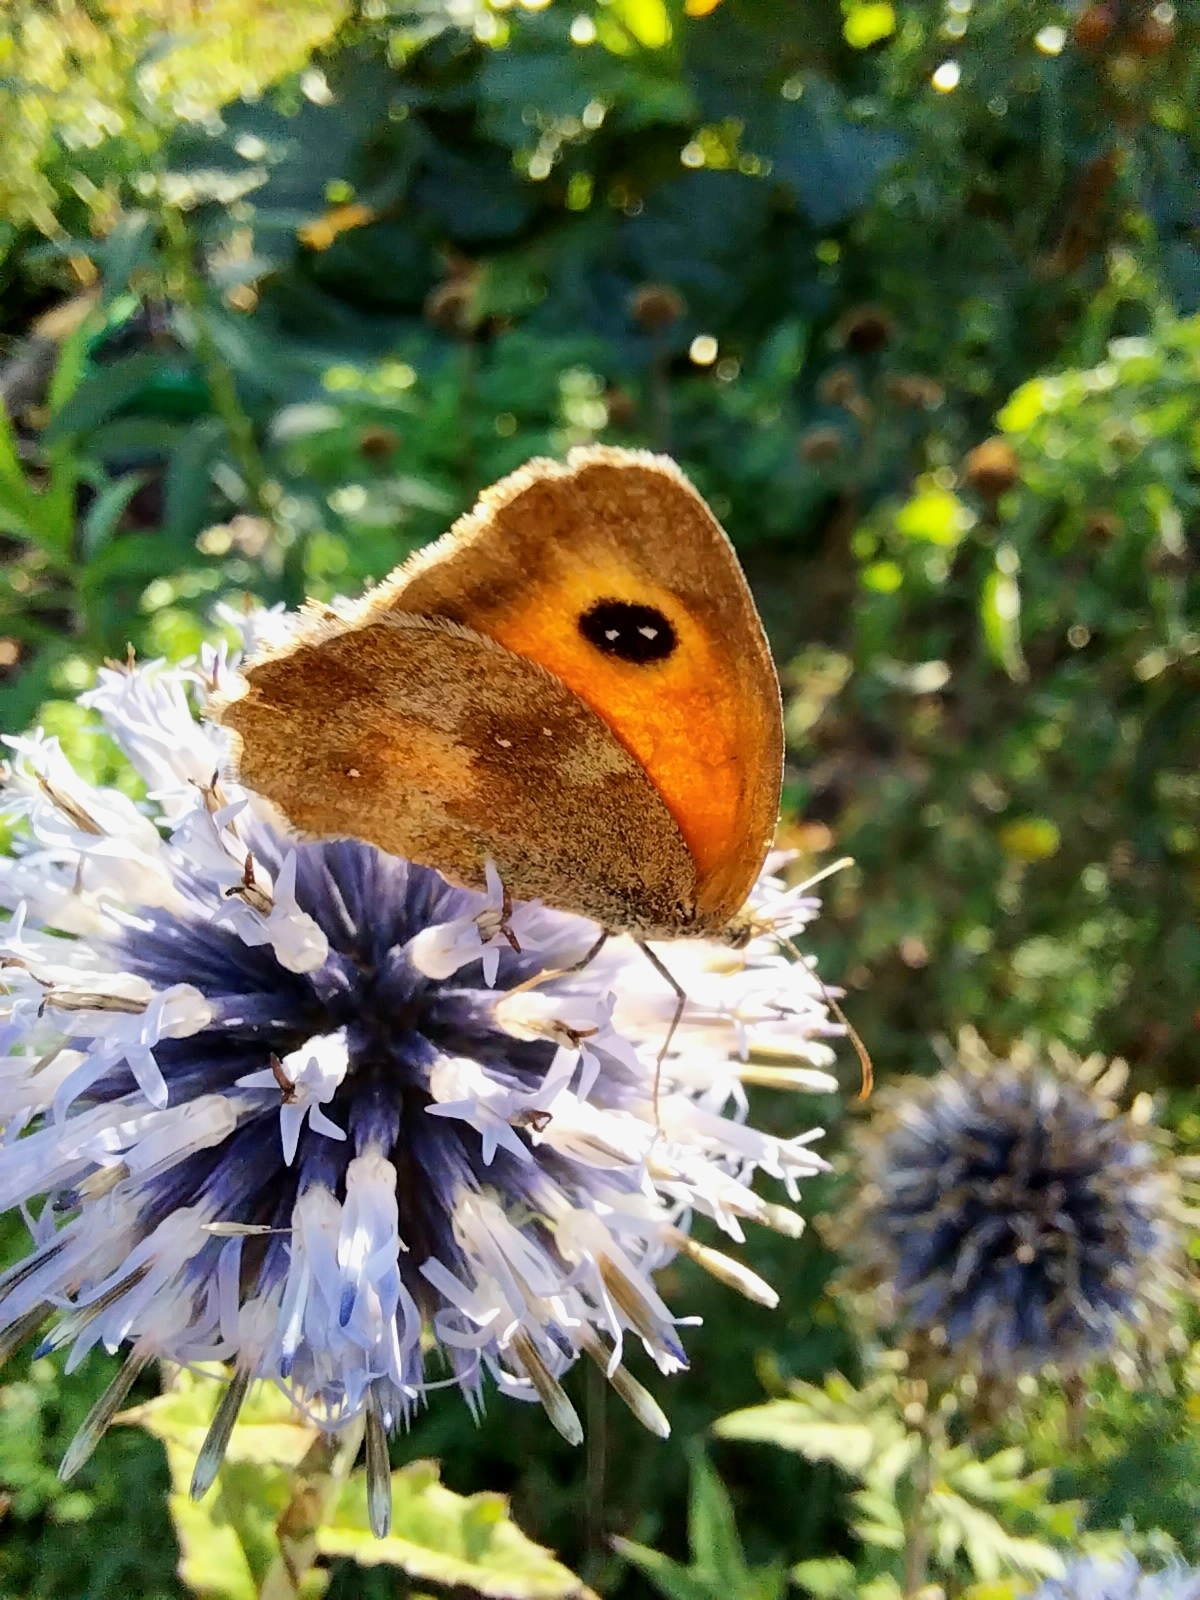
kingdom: Animalia
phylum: Arthropoda
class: Insecta
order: Lepidoptera
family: Nymphalidae
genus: Pyronia
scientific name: Pyronia tithonus
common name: Gatekeeper
